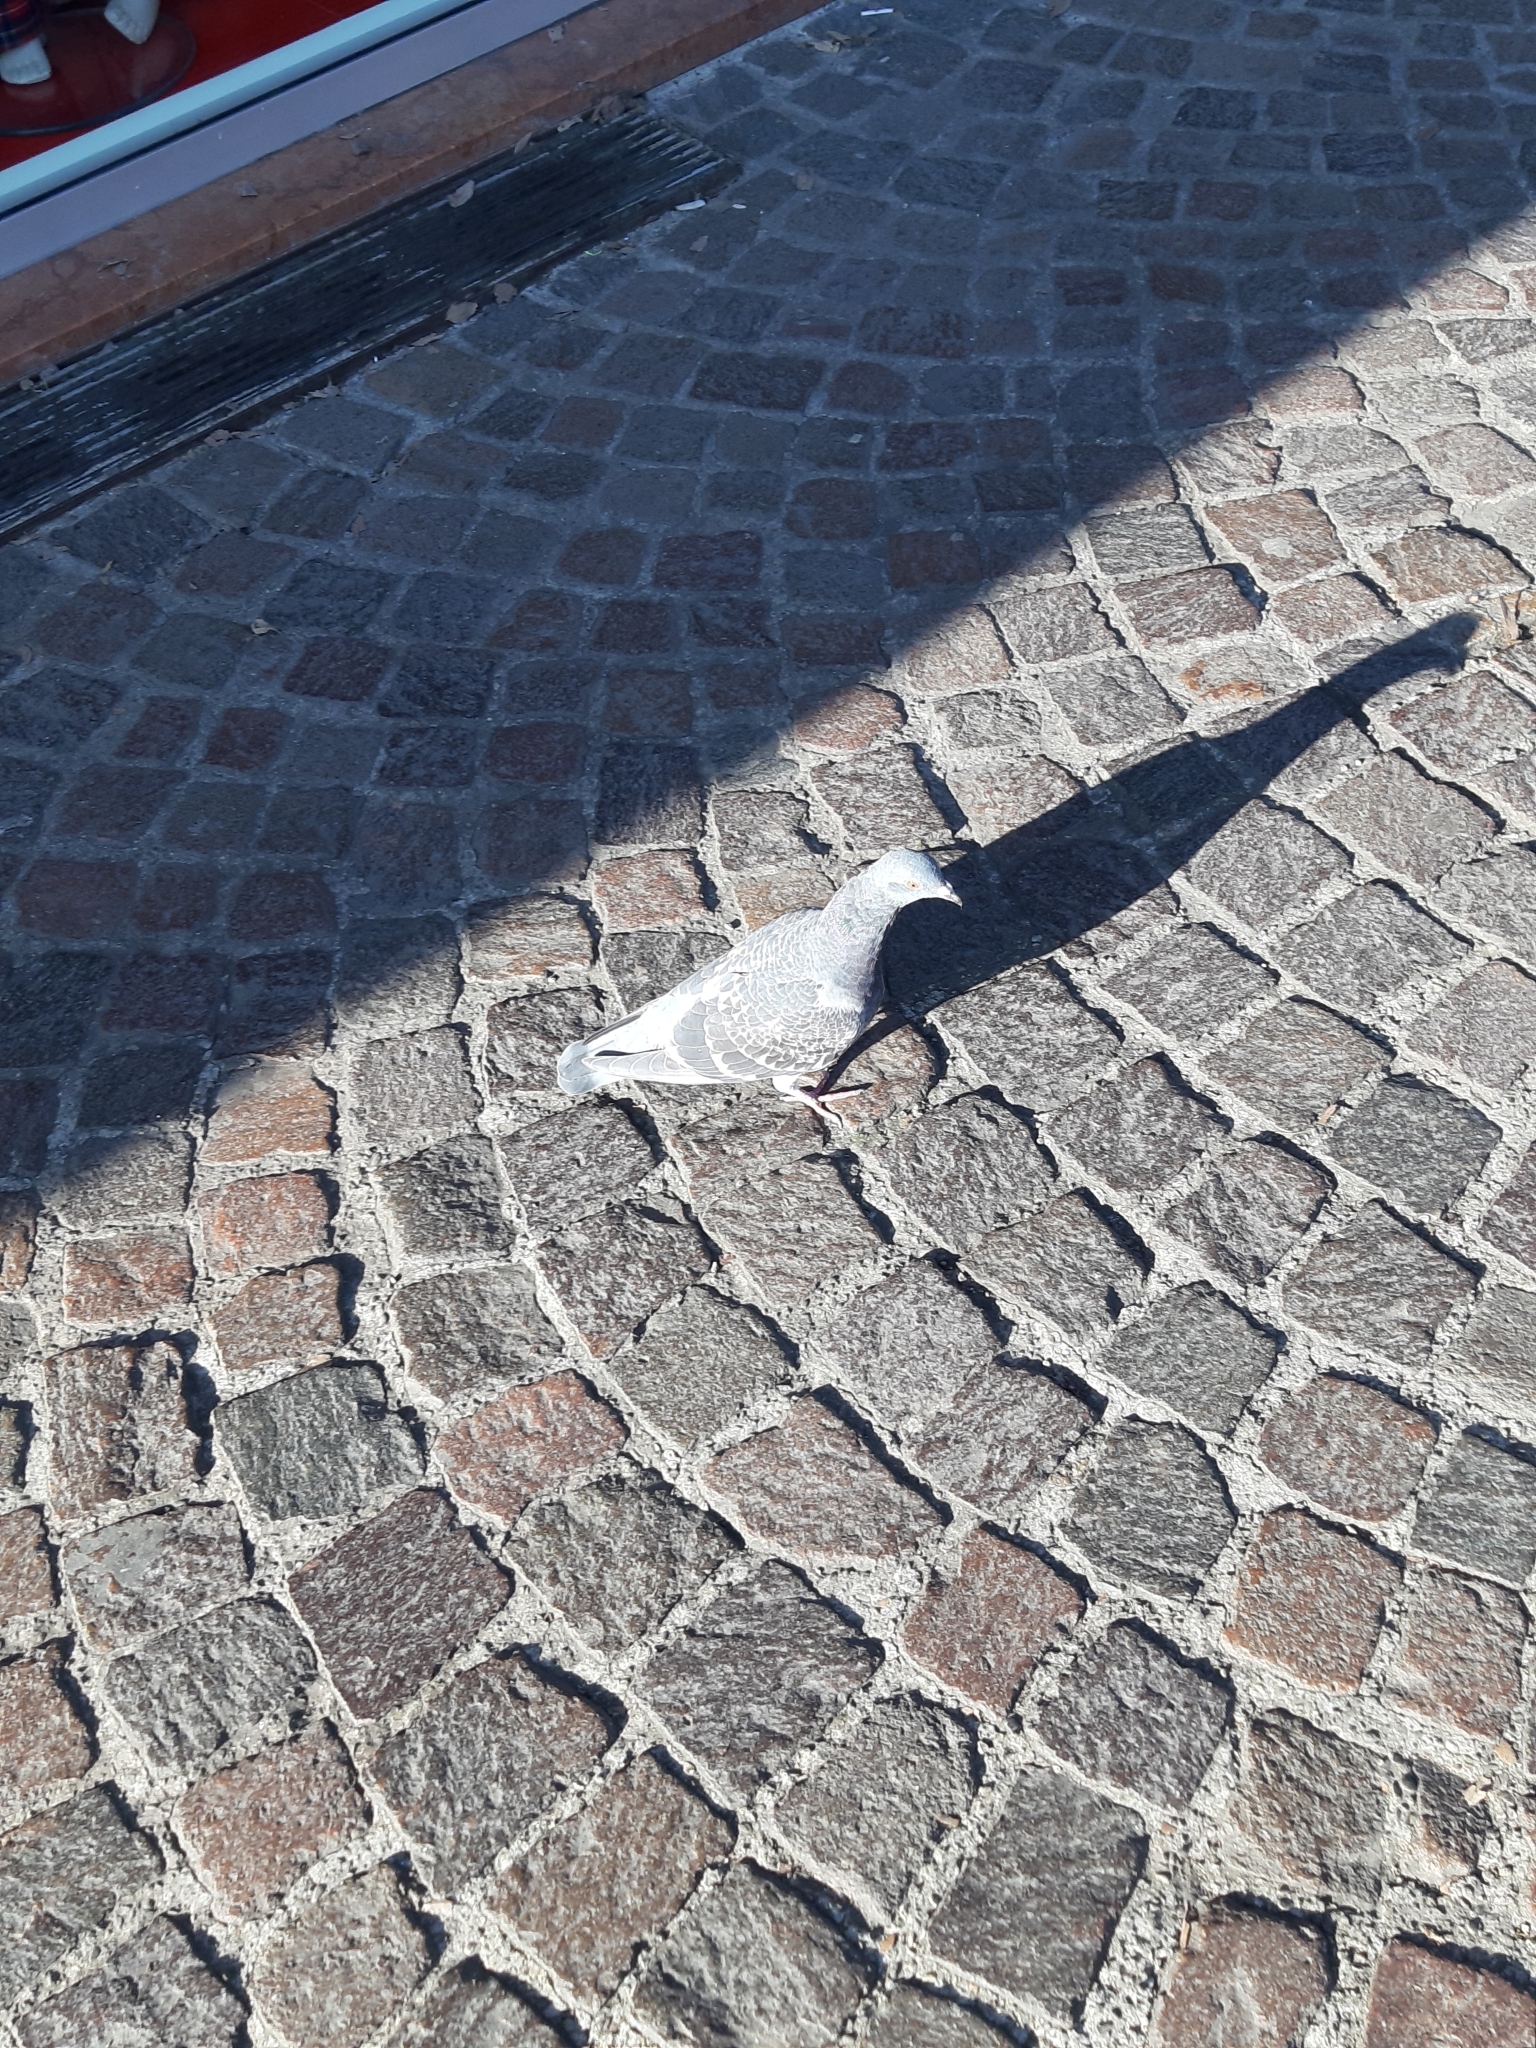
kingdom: Animalia
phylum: Chordata
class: Aves
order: Columbiformes
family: Columbidae
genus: Columba
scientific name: Columba livia
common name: Rock pigeon
